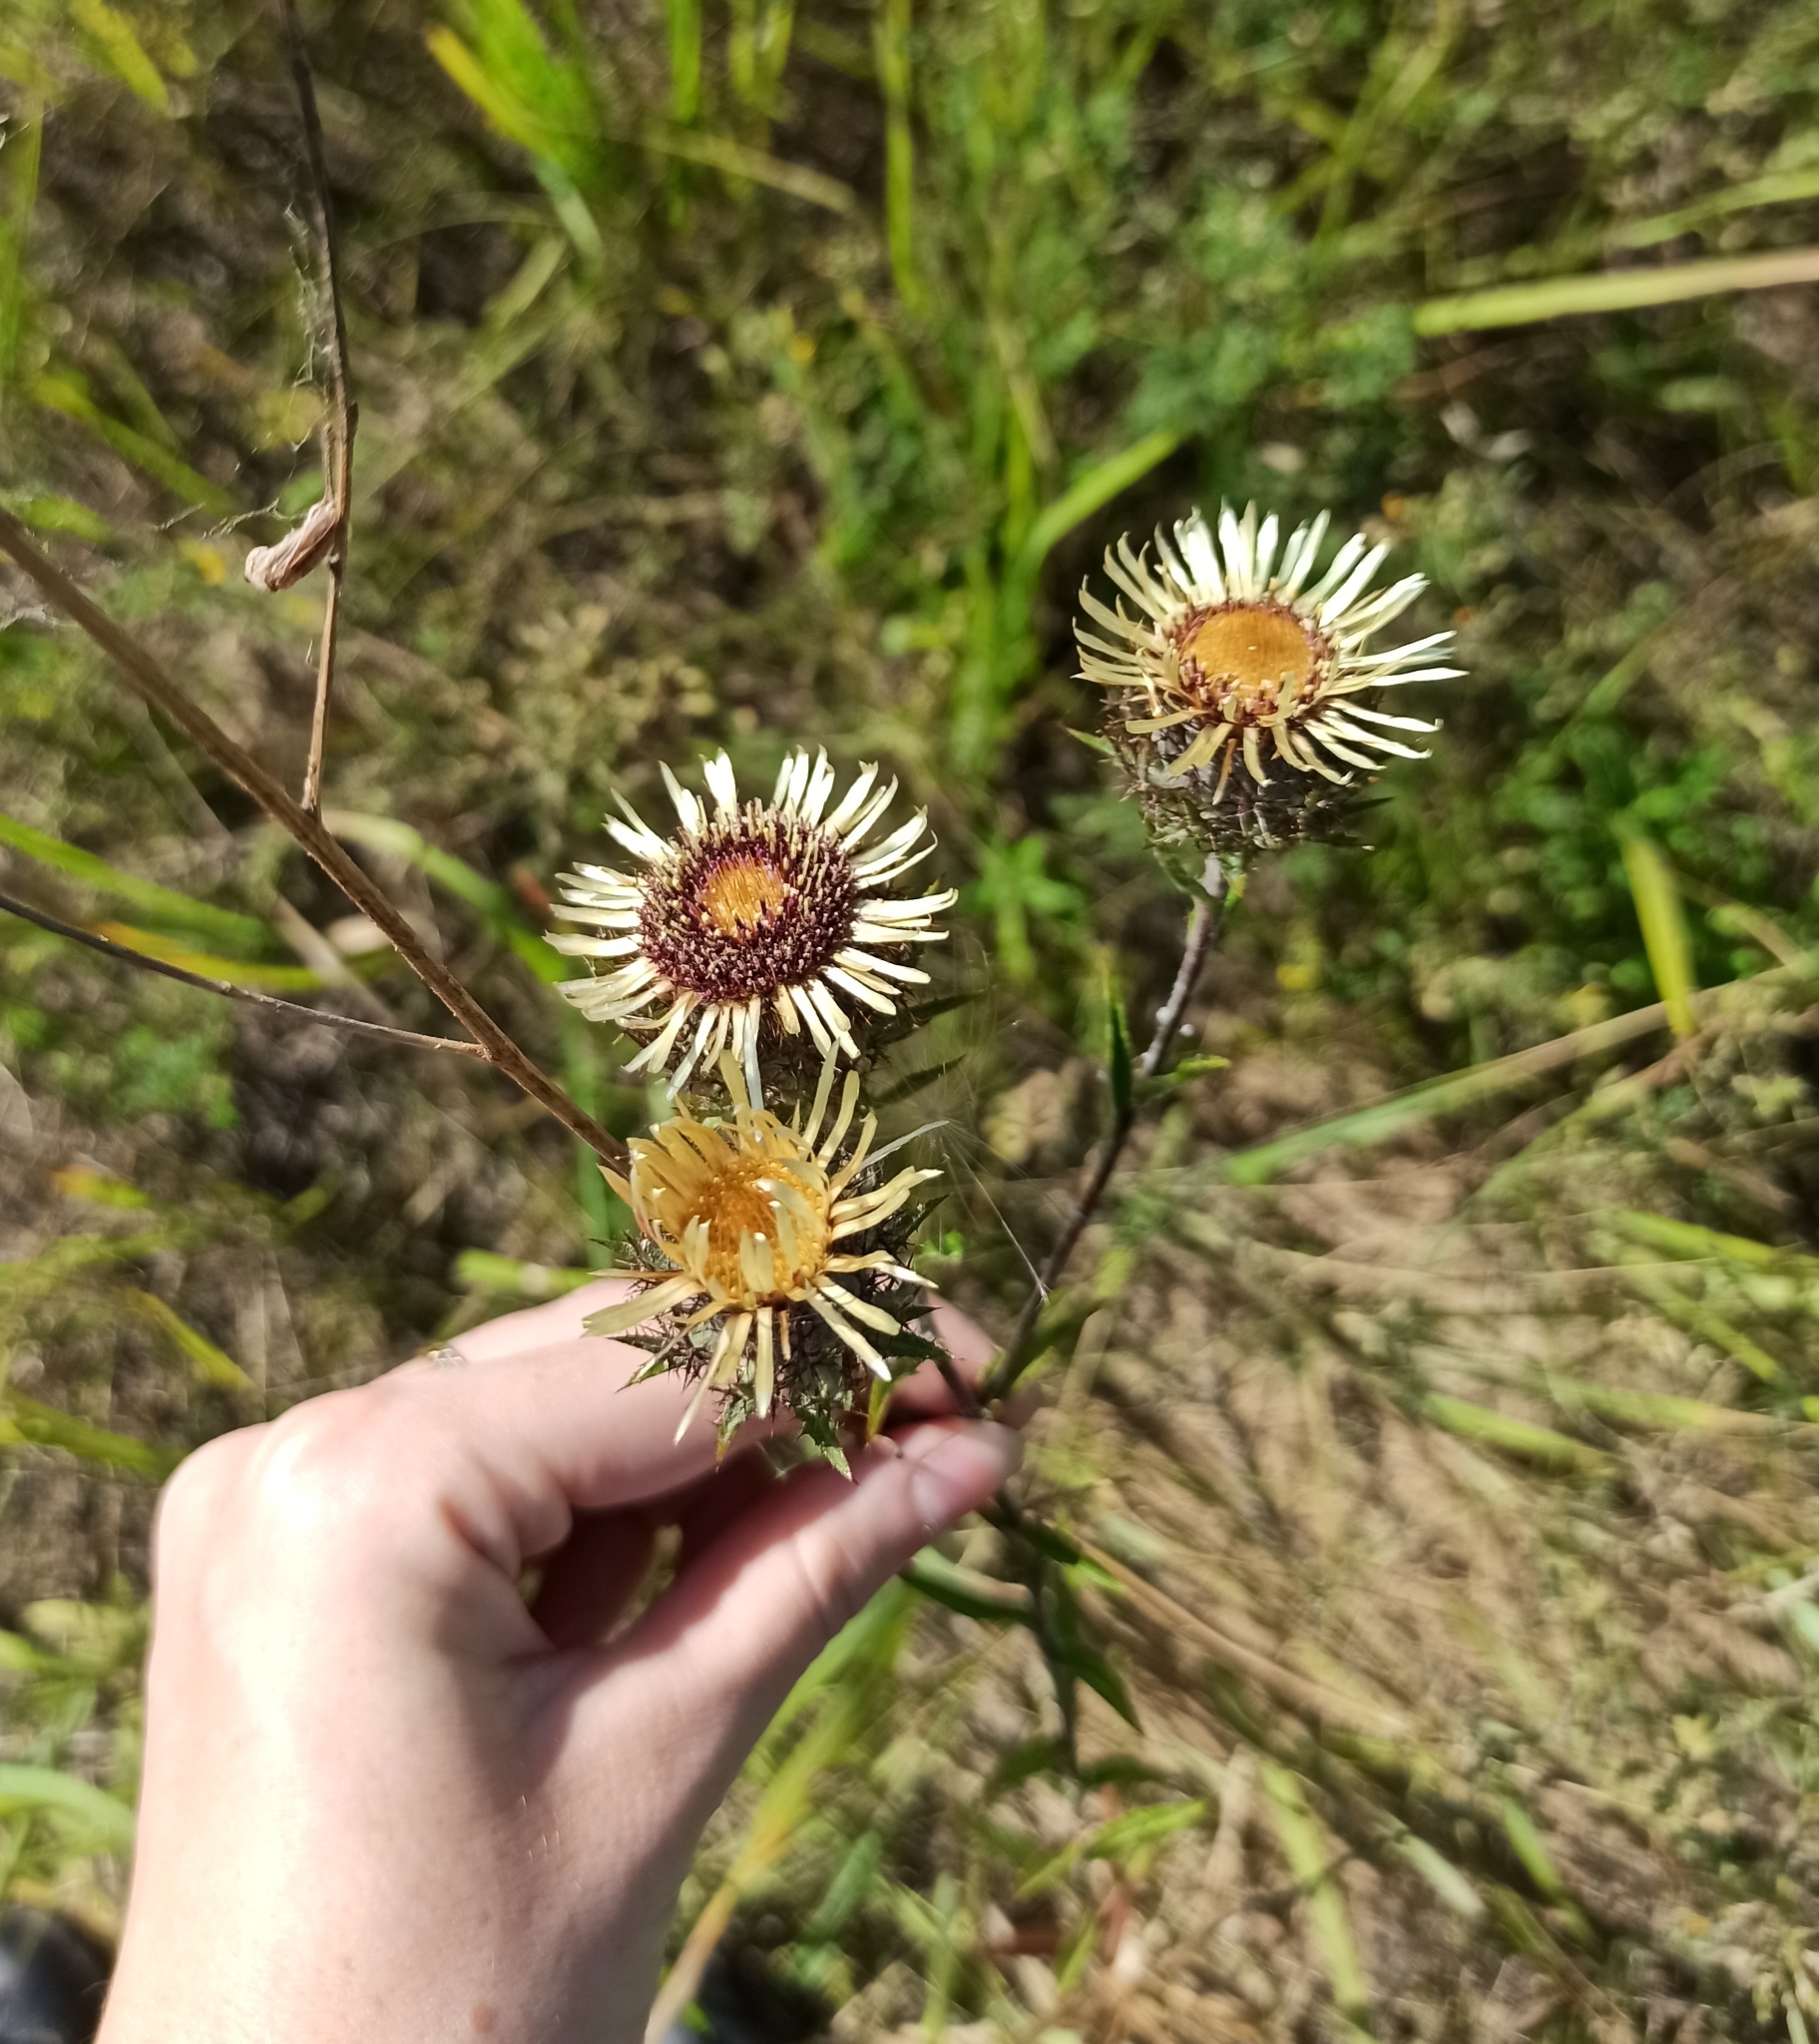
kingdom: Plantae
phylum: Tracheophyta
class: Magnoliopsida
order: Asterales
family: Asteraceae
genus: Carlina
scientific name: Carlina biebersteinii
